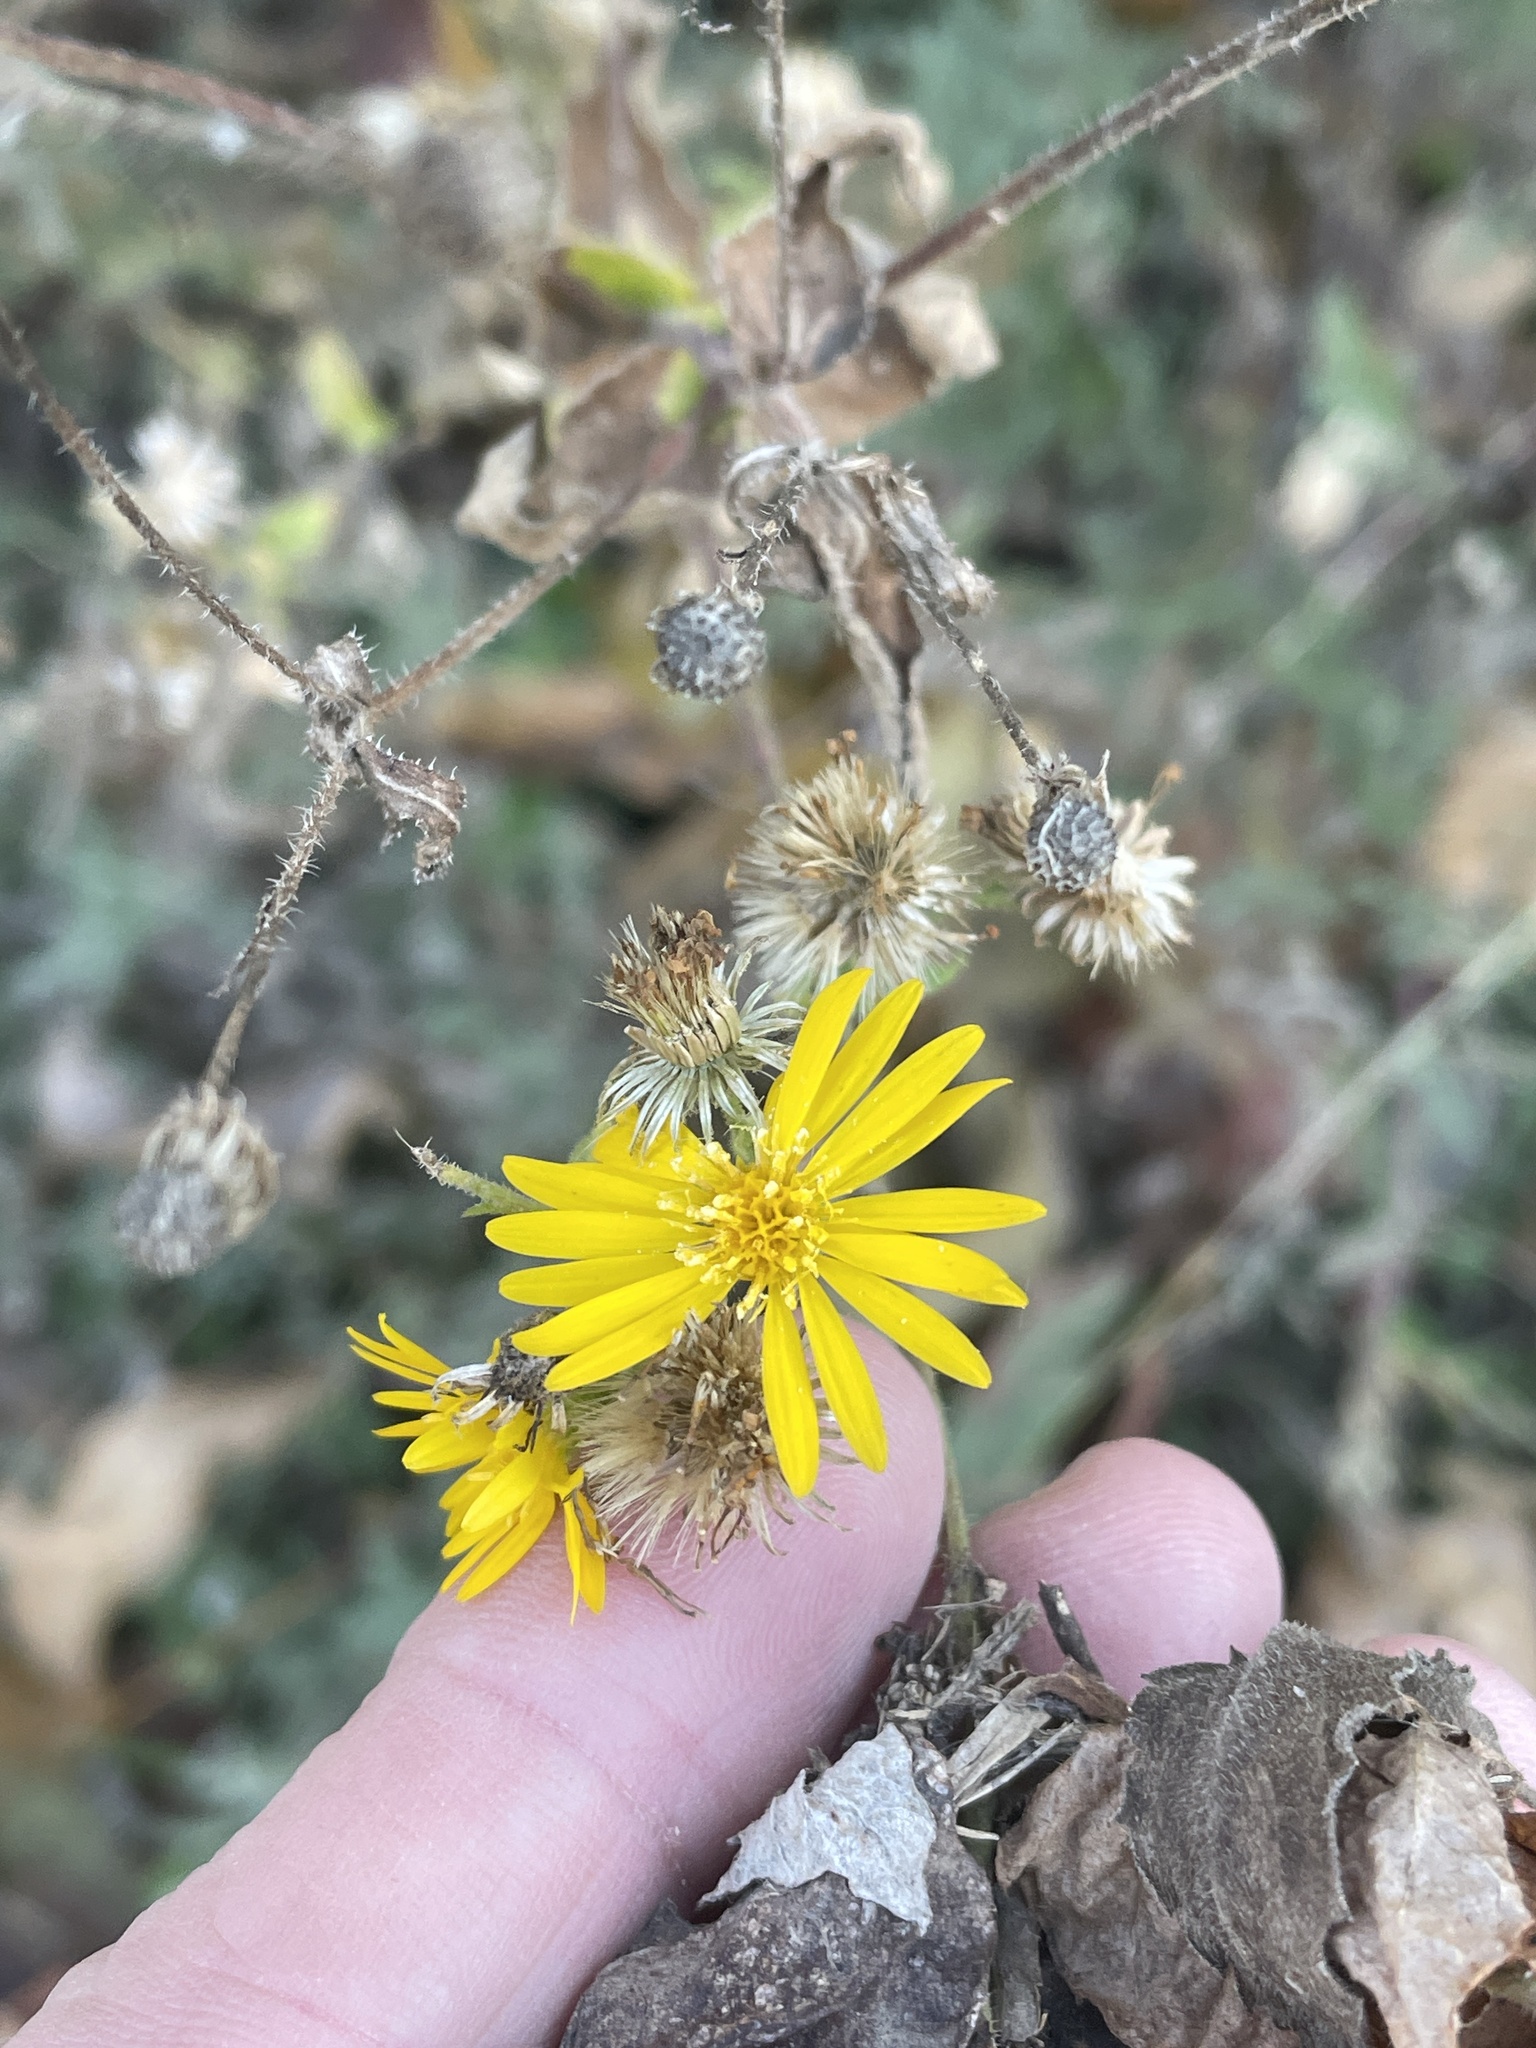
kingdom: Plantae
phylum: Tracheophyta
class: Magnoliopsida
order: Asterales
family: Asteraceae
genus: Heterotheca
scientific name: Heterotheca subaxillaris
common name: Camphorweed
